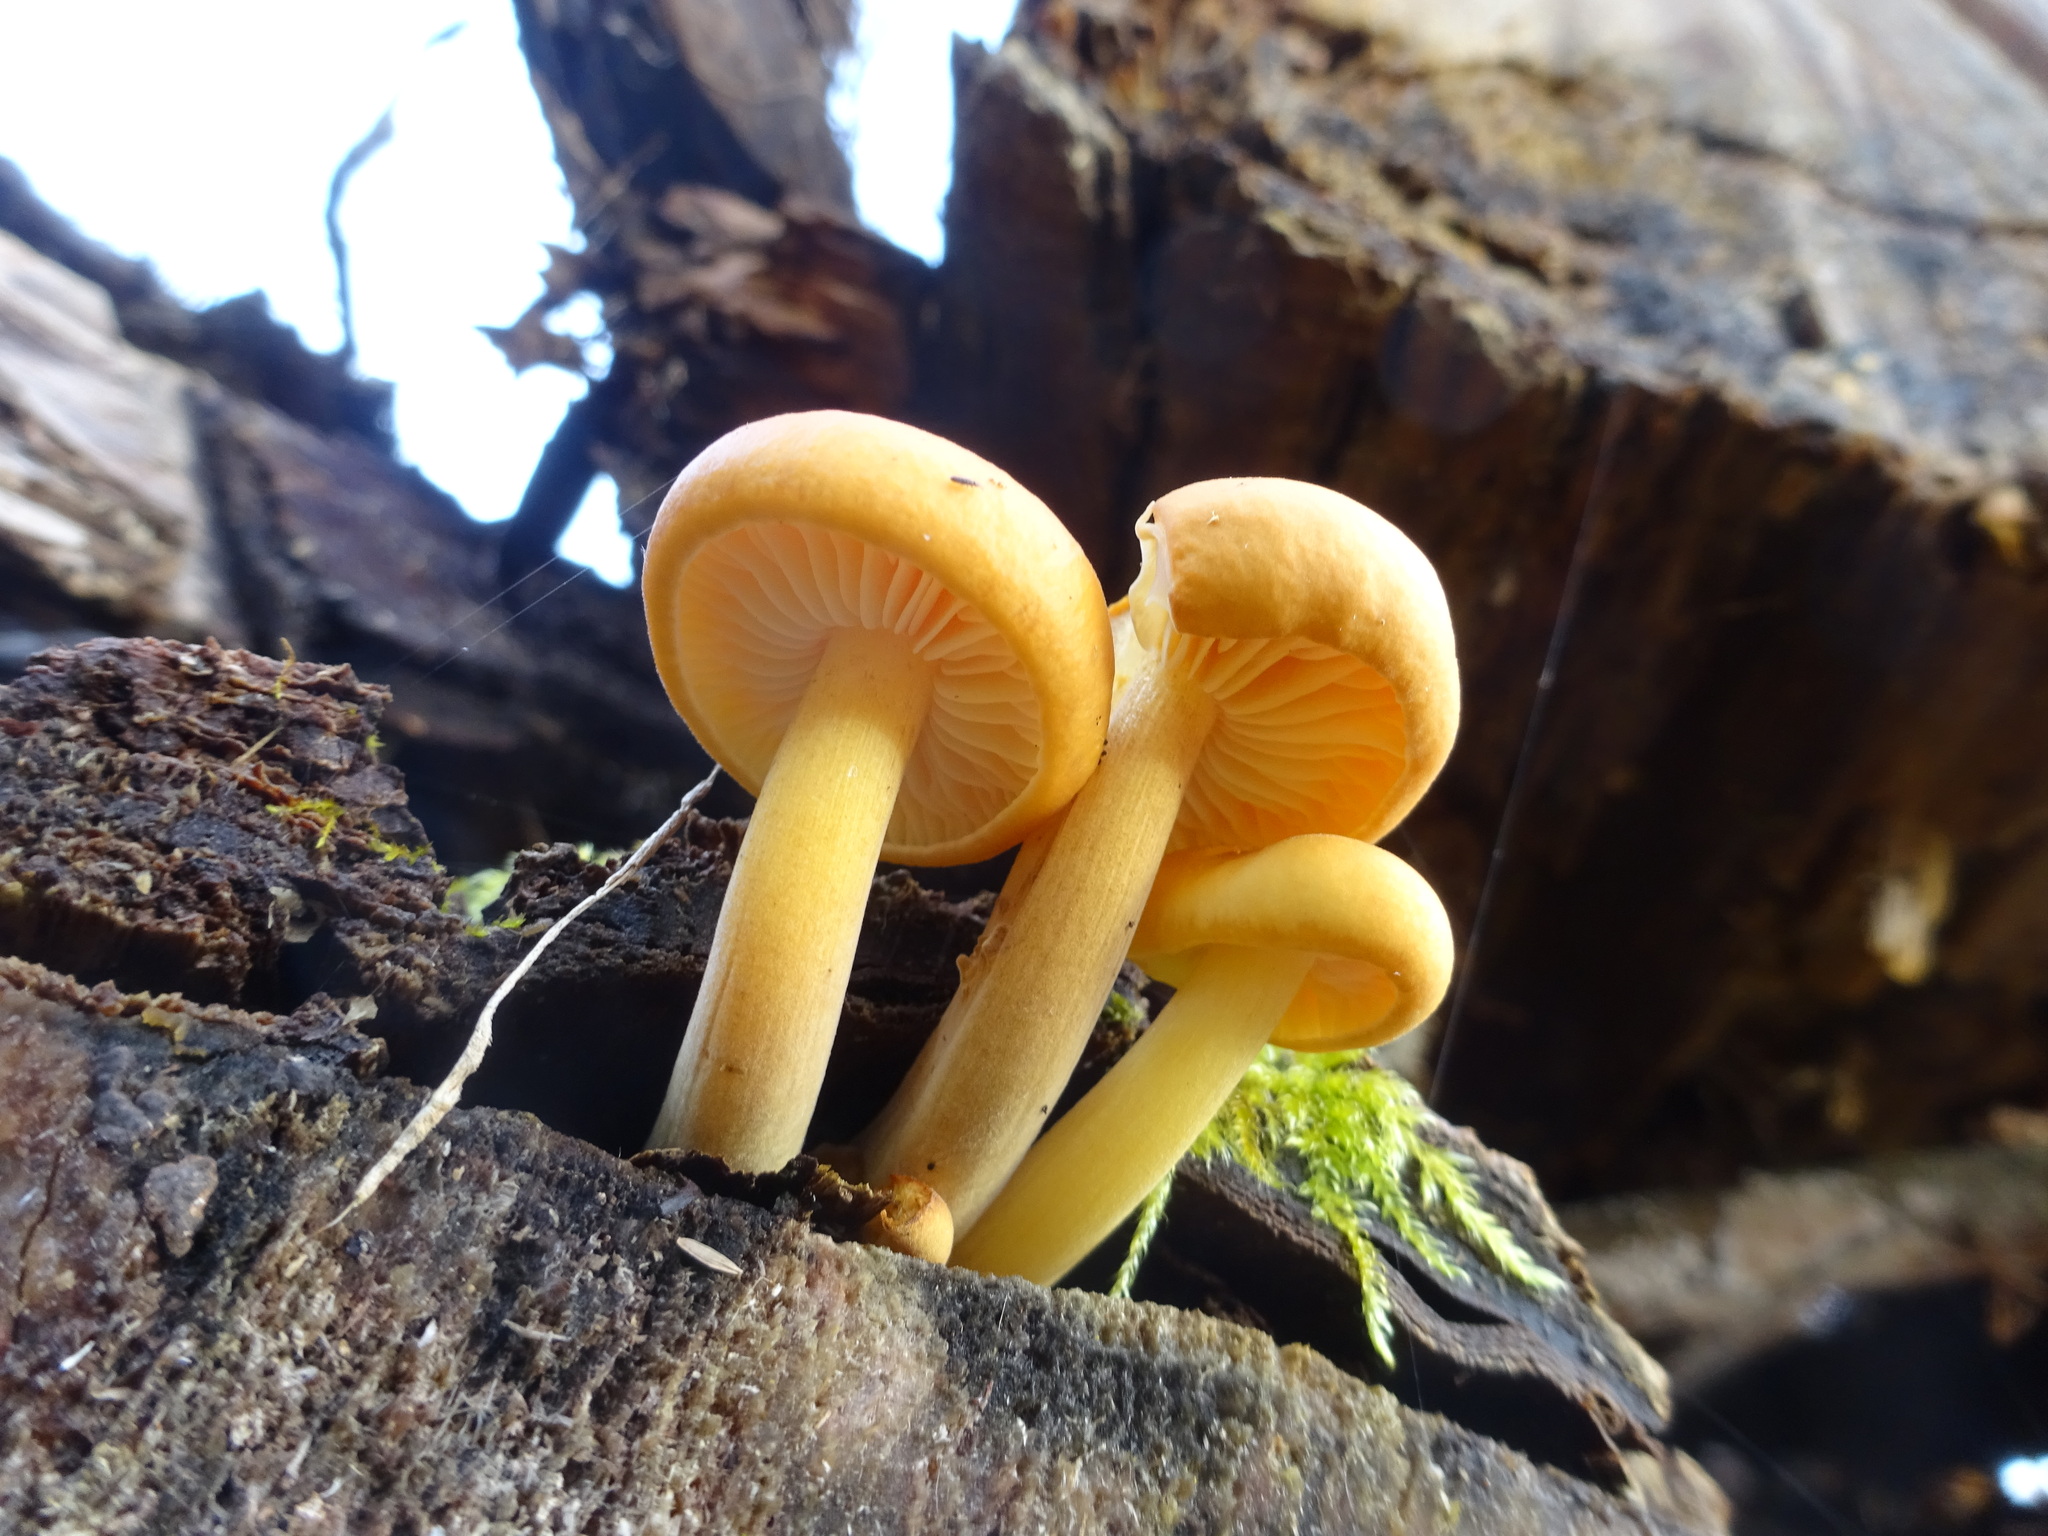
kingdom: Fungi
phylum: Basidiomycota
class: Agaricomycetes
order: Agaricales
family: Physalacriaceae
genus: Flammulina
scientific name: Flammulina
